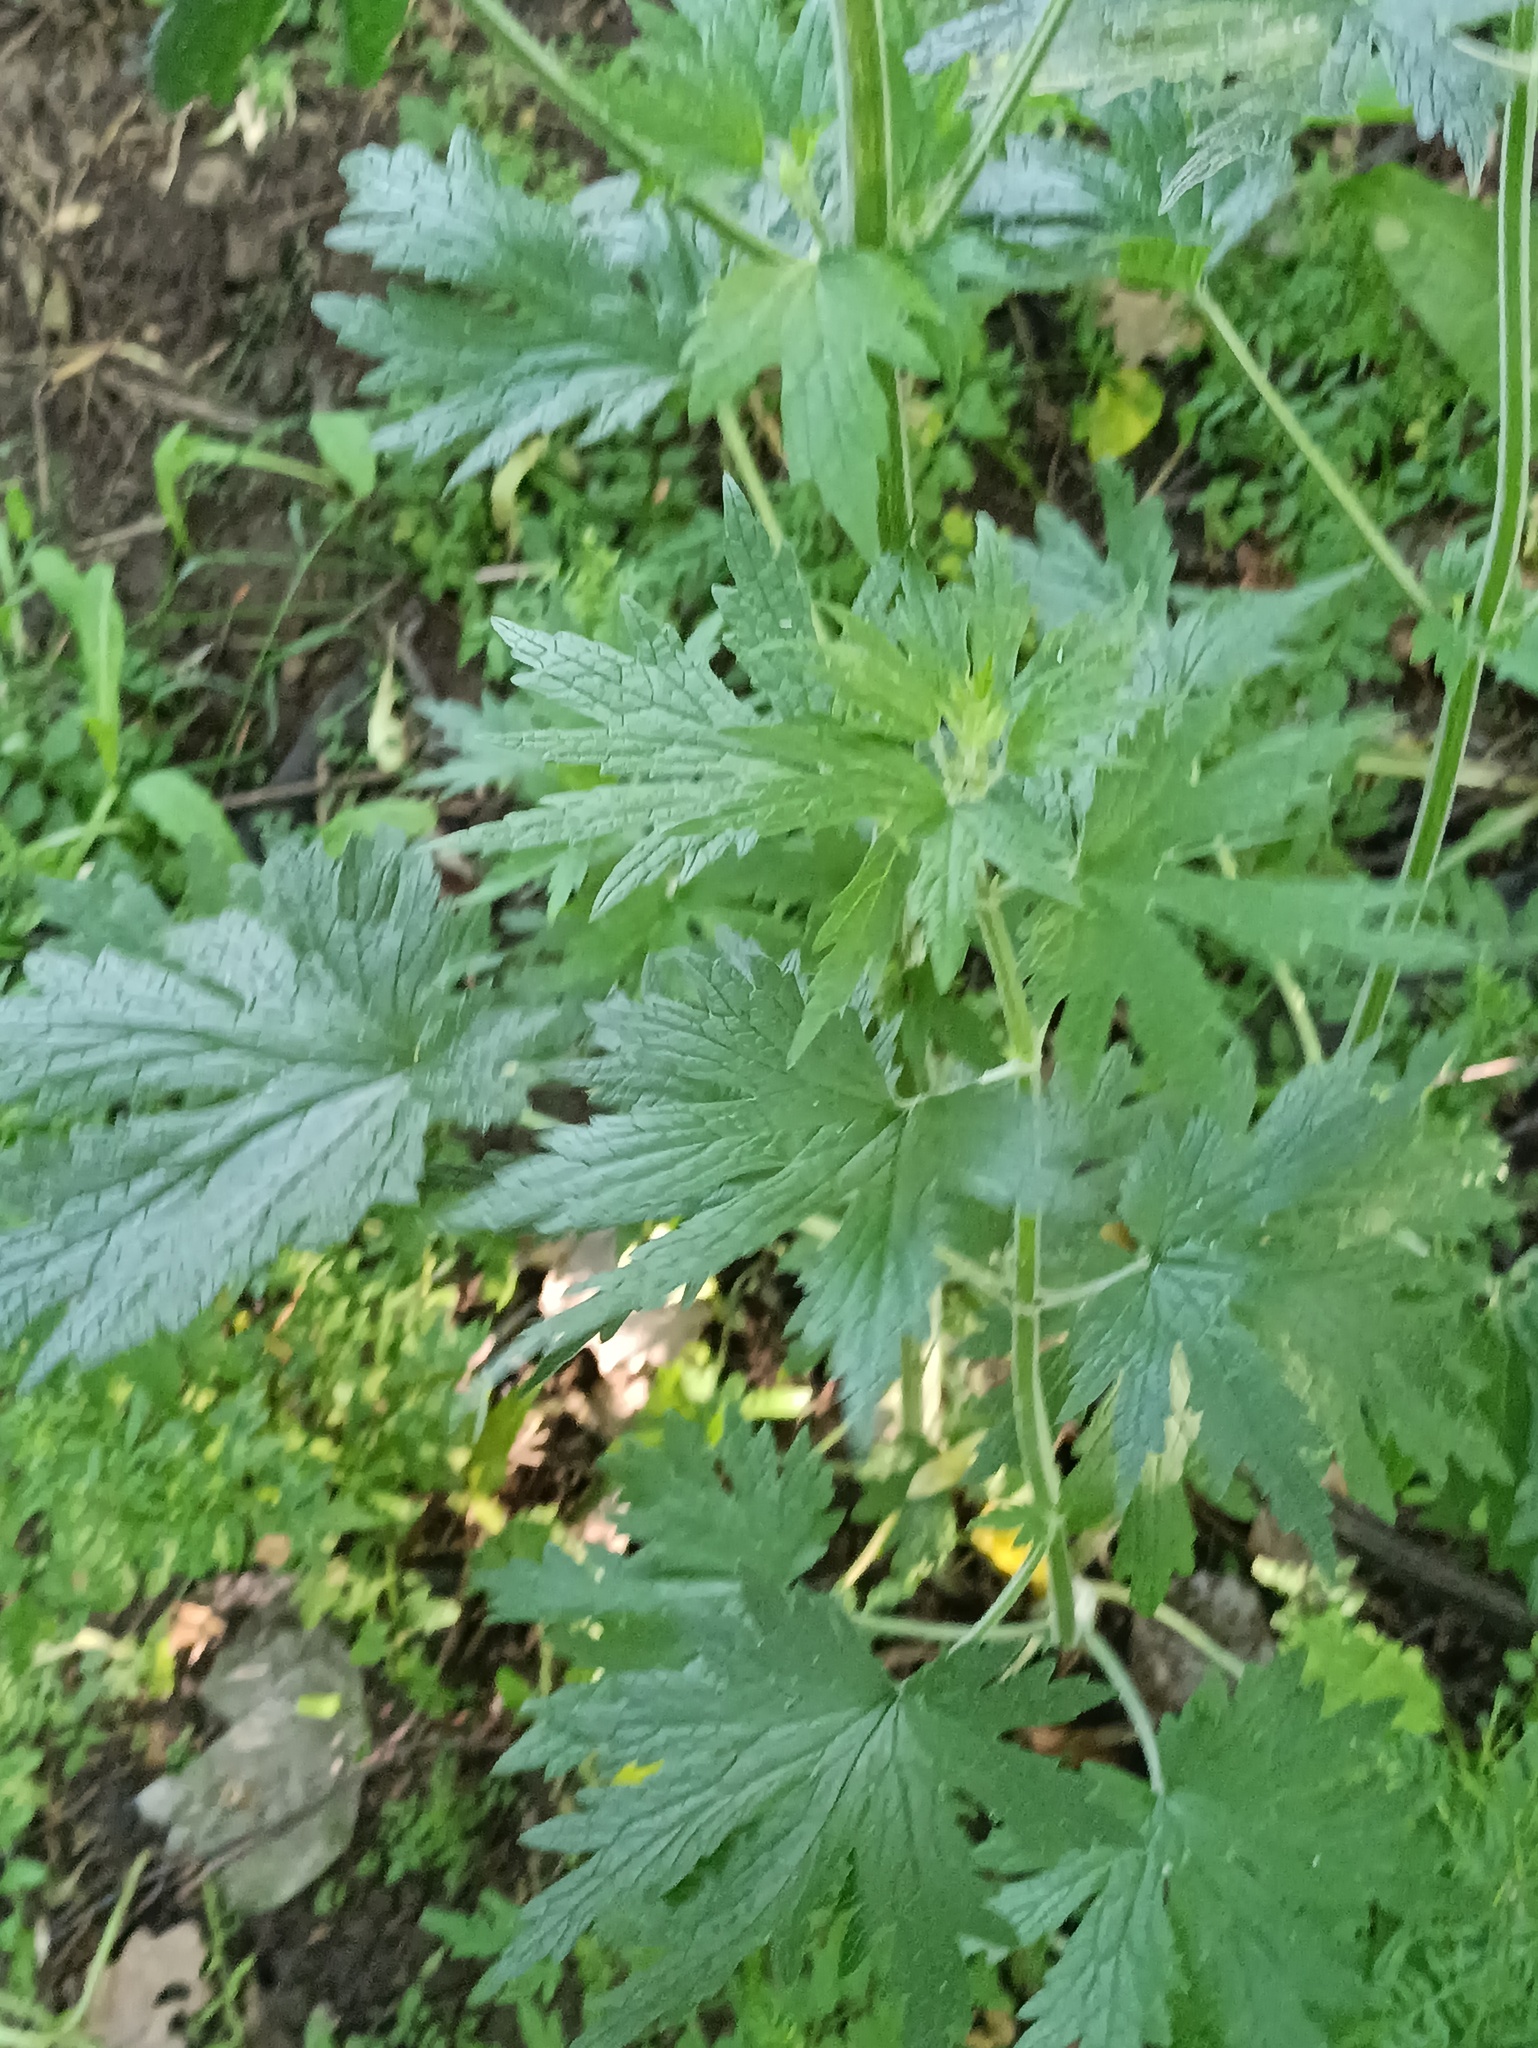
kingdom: Plantae
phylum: Tracheophyta
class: Magnoliopsida
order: Lamiales
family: Lamiaceae
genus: Leonurus
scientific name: Leonurus quinquelobatus
